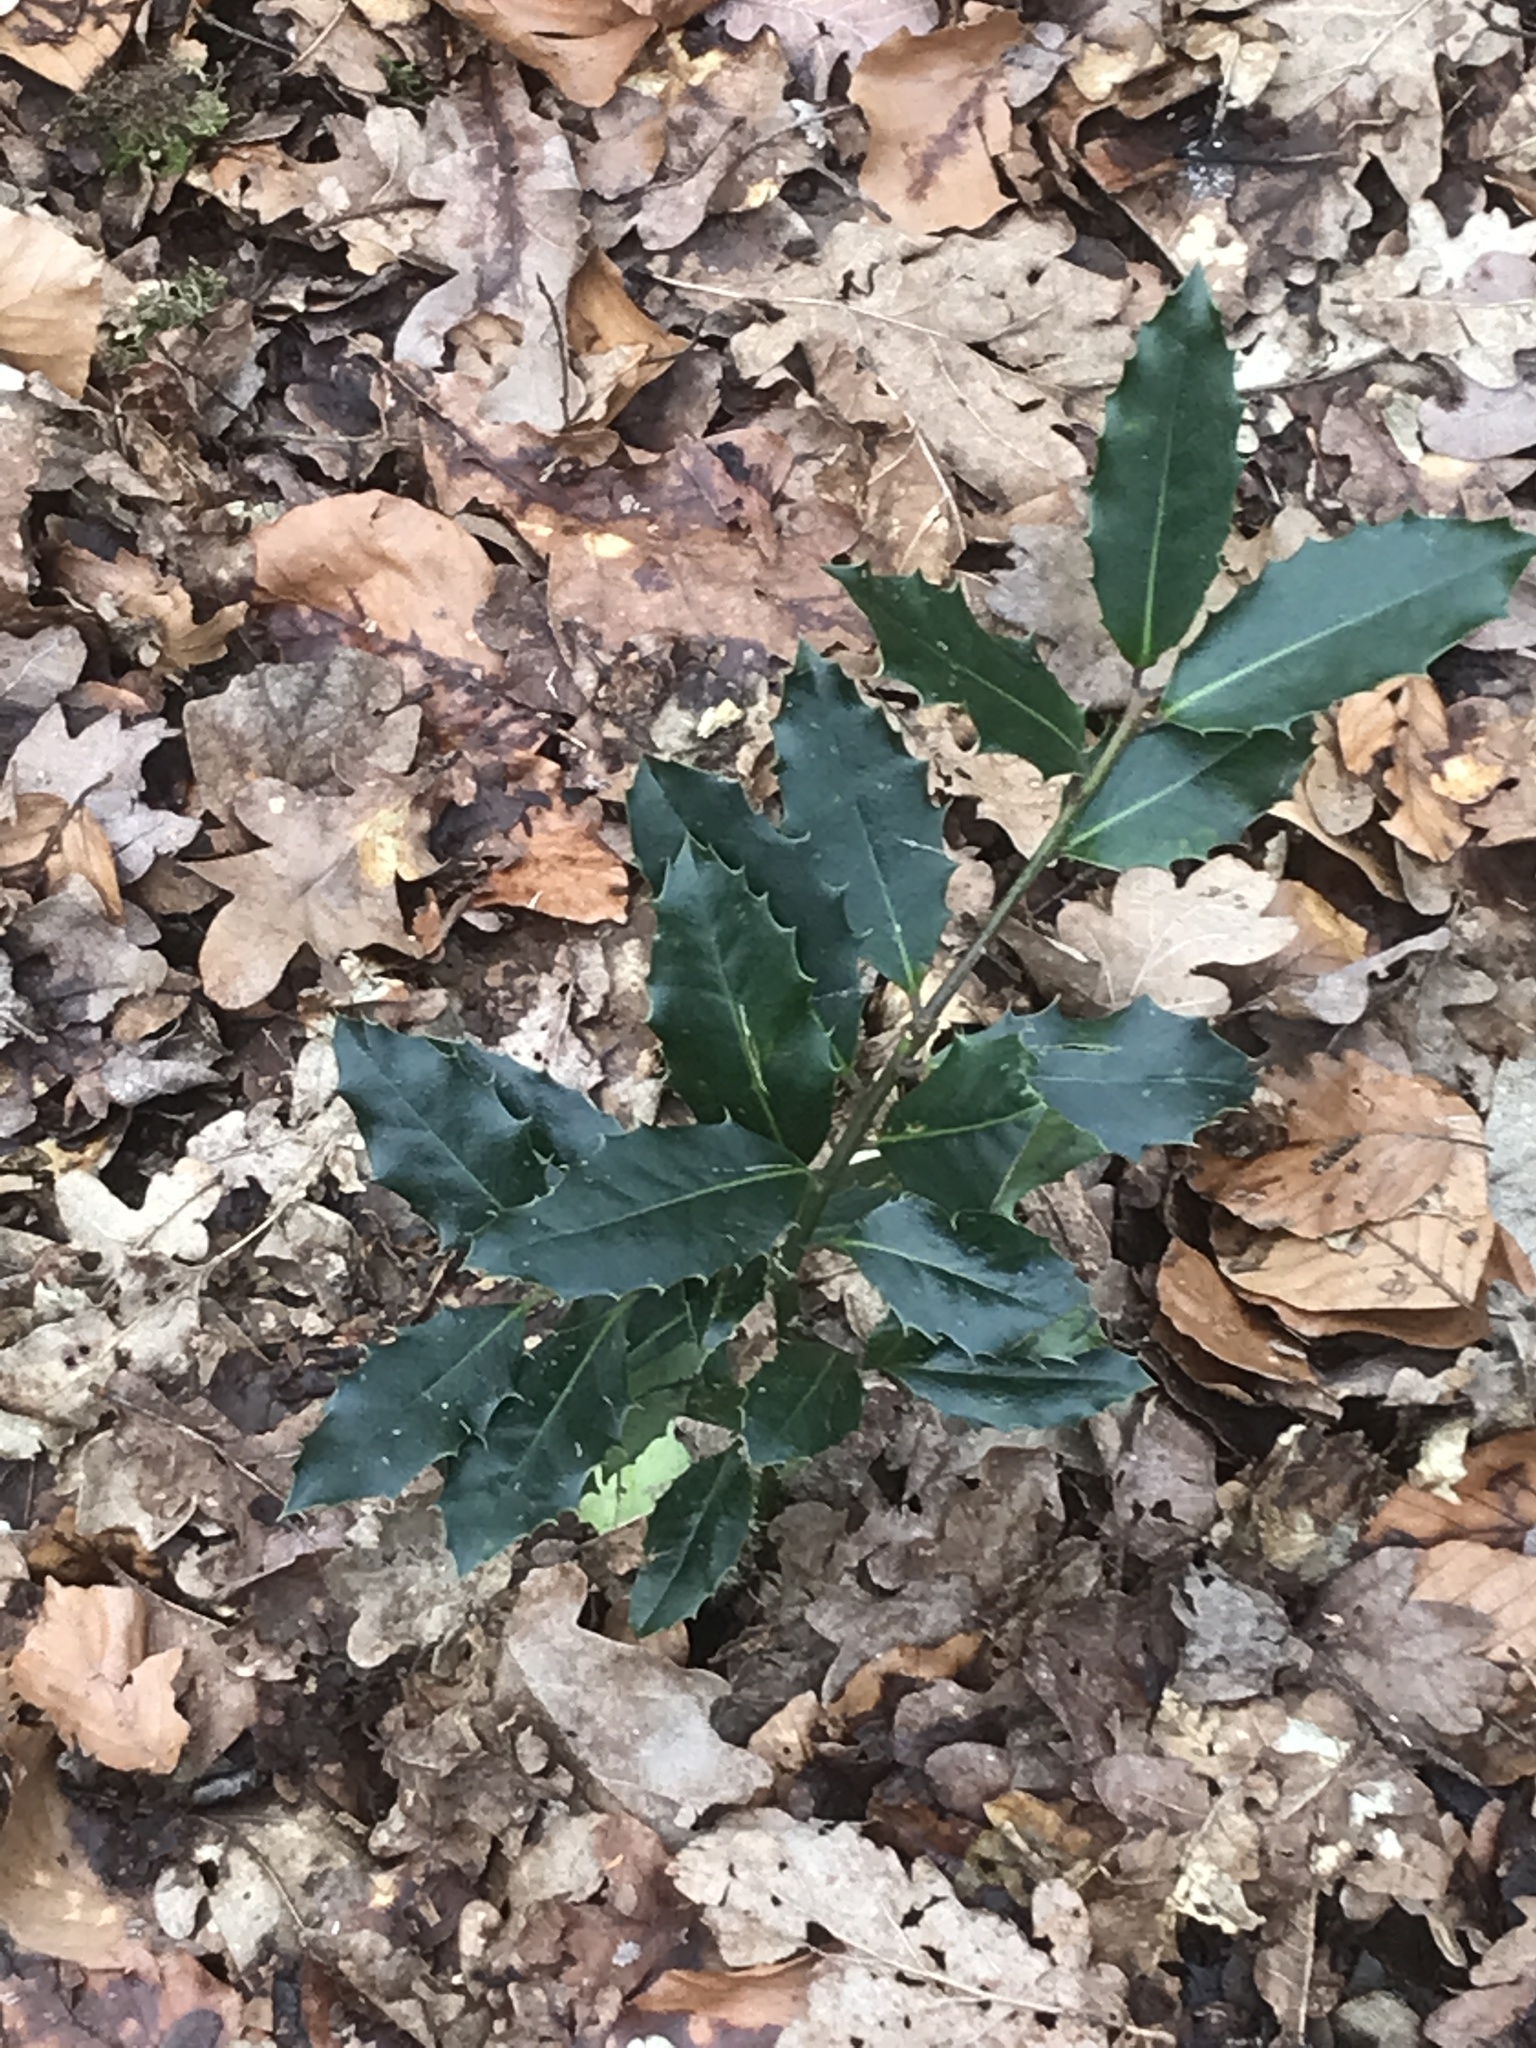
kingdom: Plantae
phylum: Tracheophyta
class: Magnoliopsida
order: Aquifoliales
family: Aquifoliaceae
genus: Ilex
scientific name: Ilex aquifolium
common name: English holly
